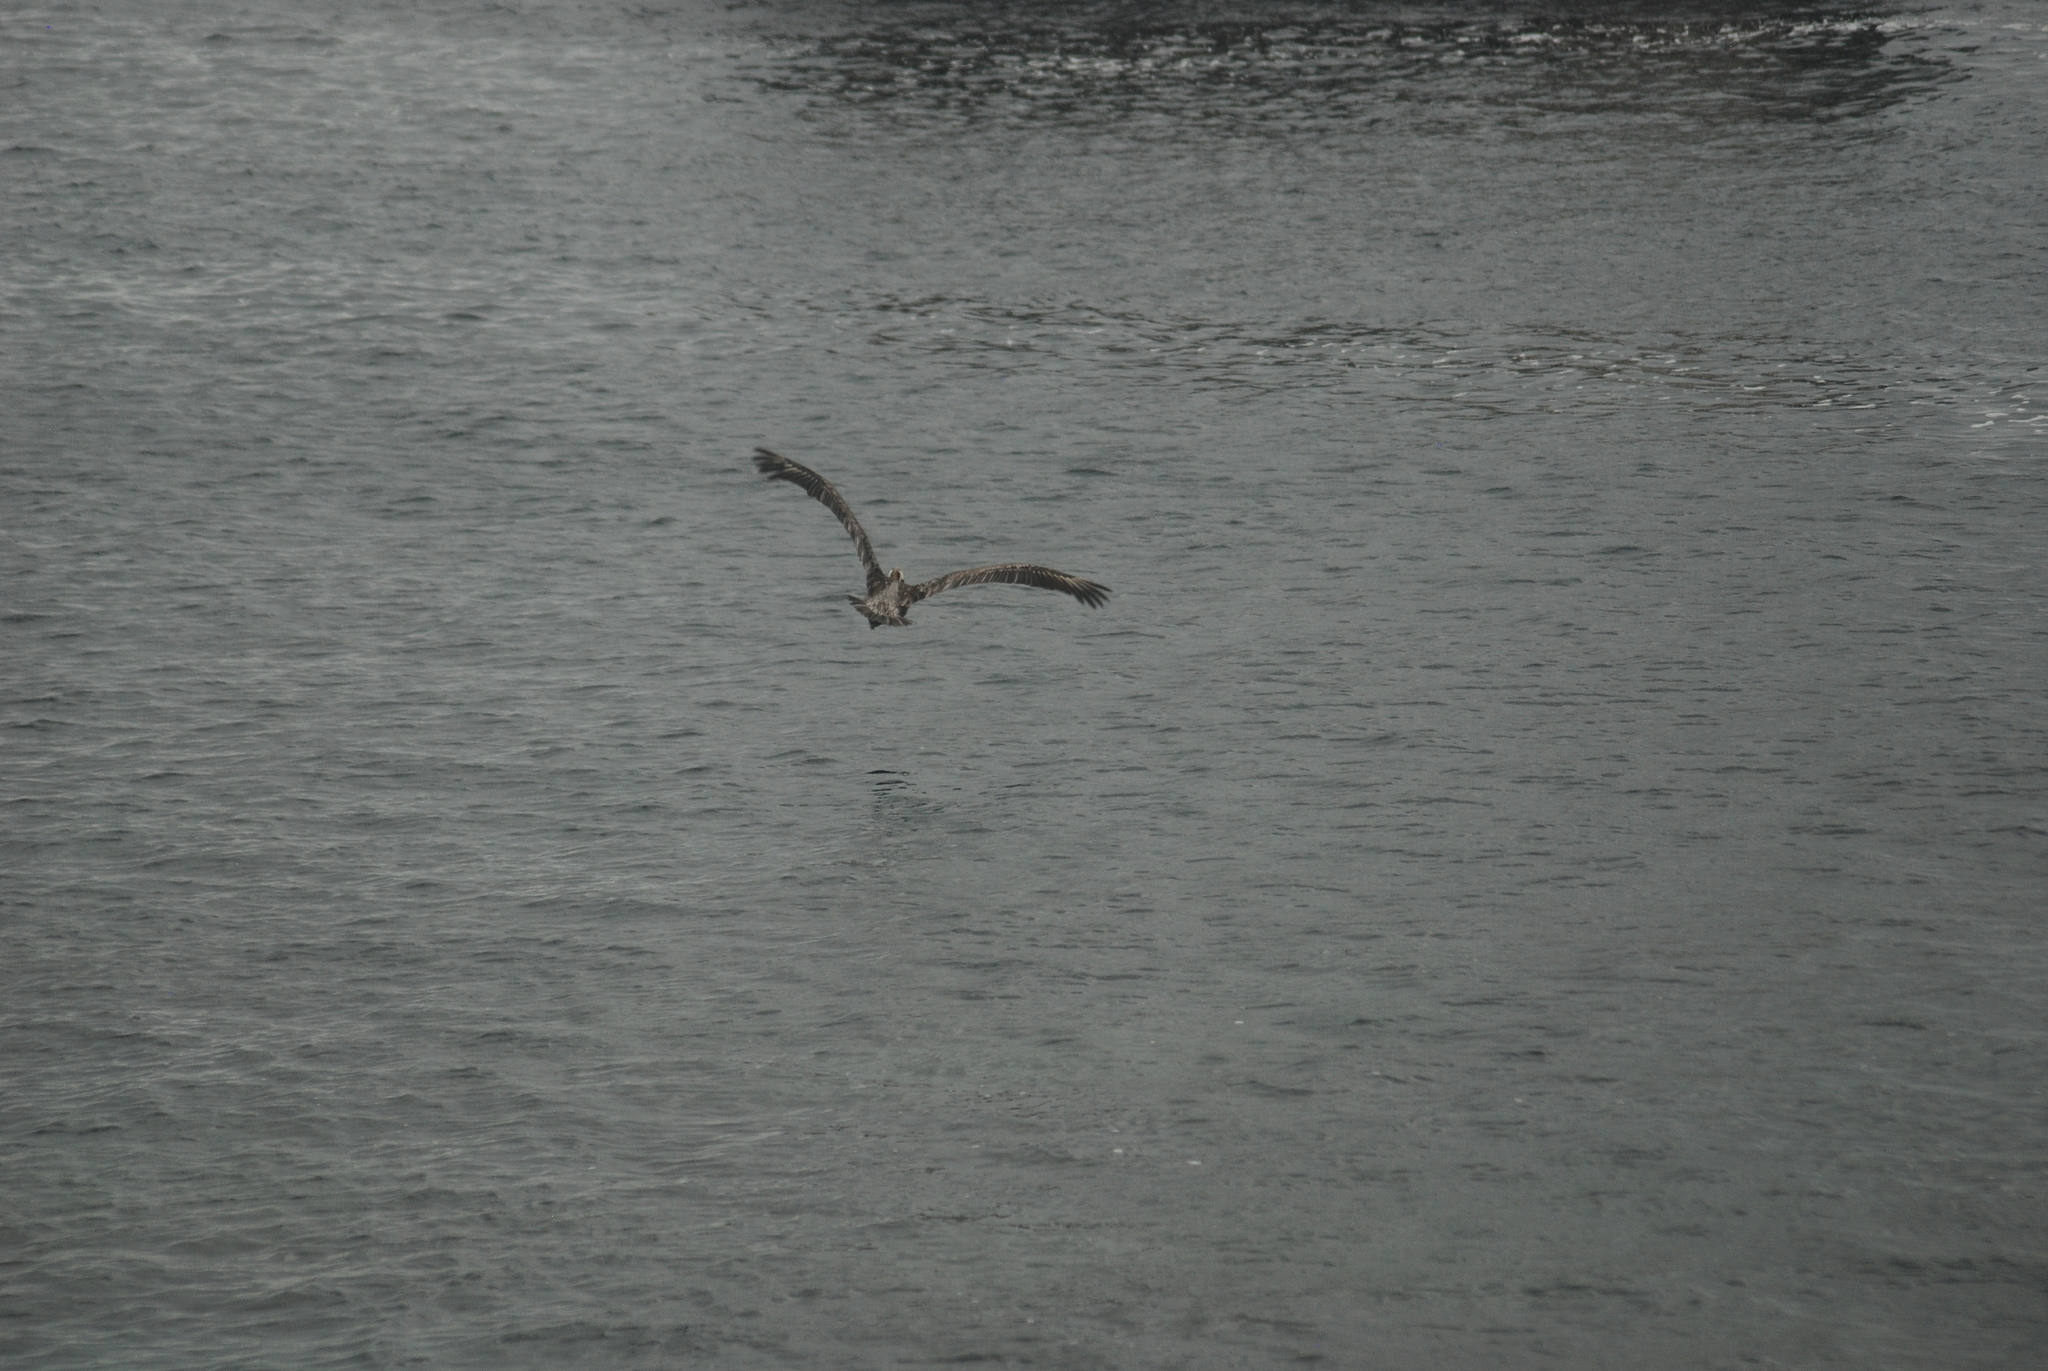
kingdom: Animalia
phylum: Chordata
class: Aves
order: Pelecaniformes
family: Pelecanidae
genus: Pelecanus
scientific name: Pelecanus occidentalis
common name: Brown pelican
